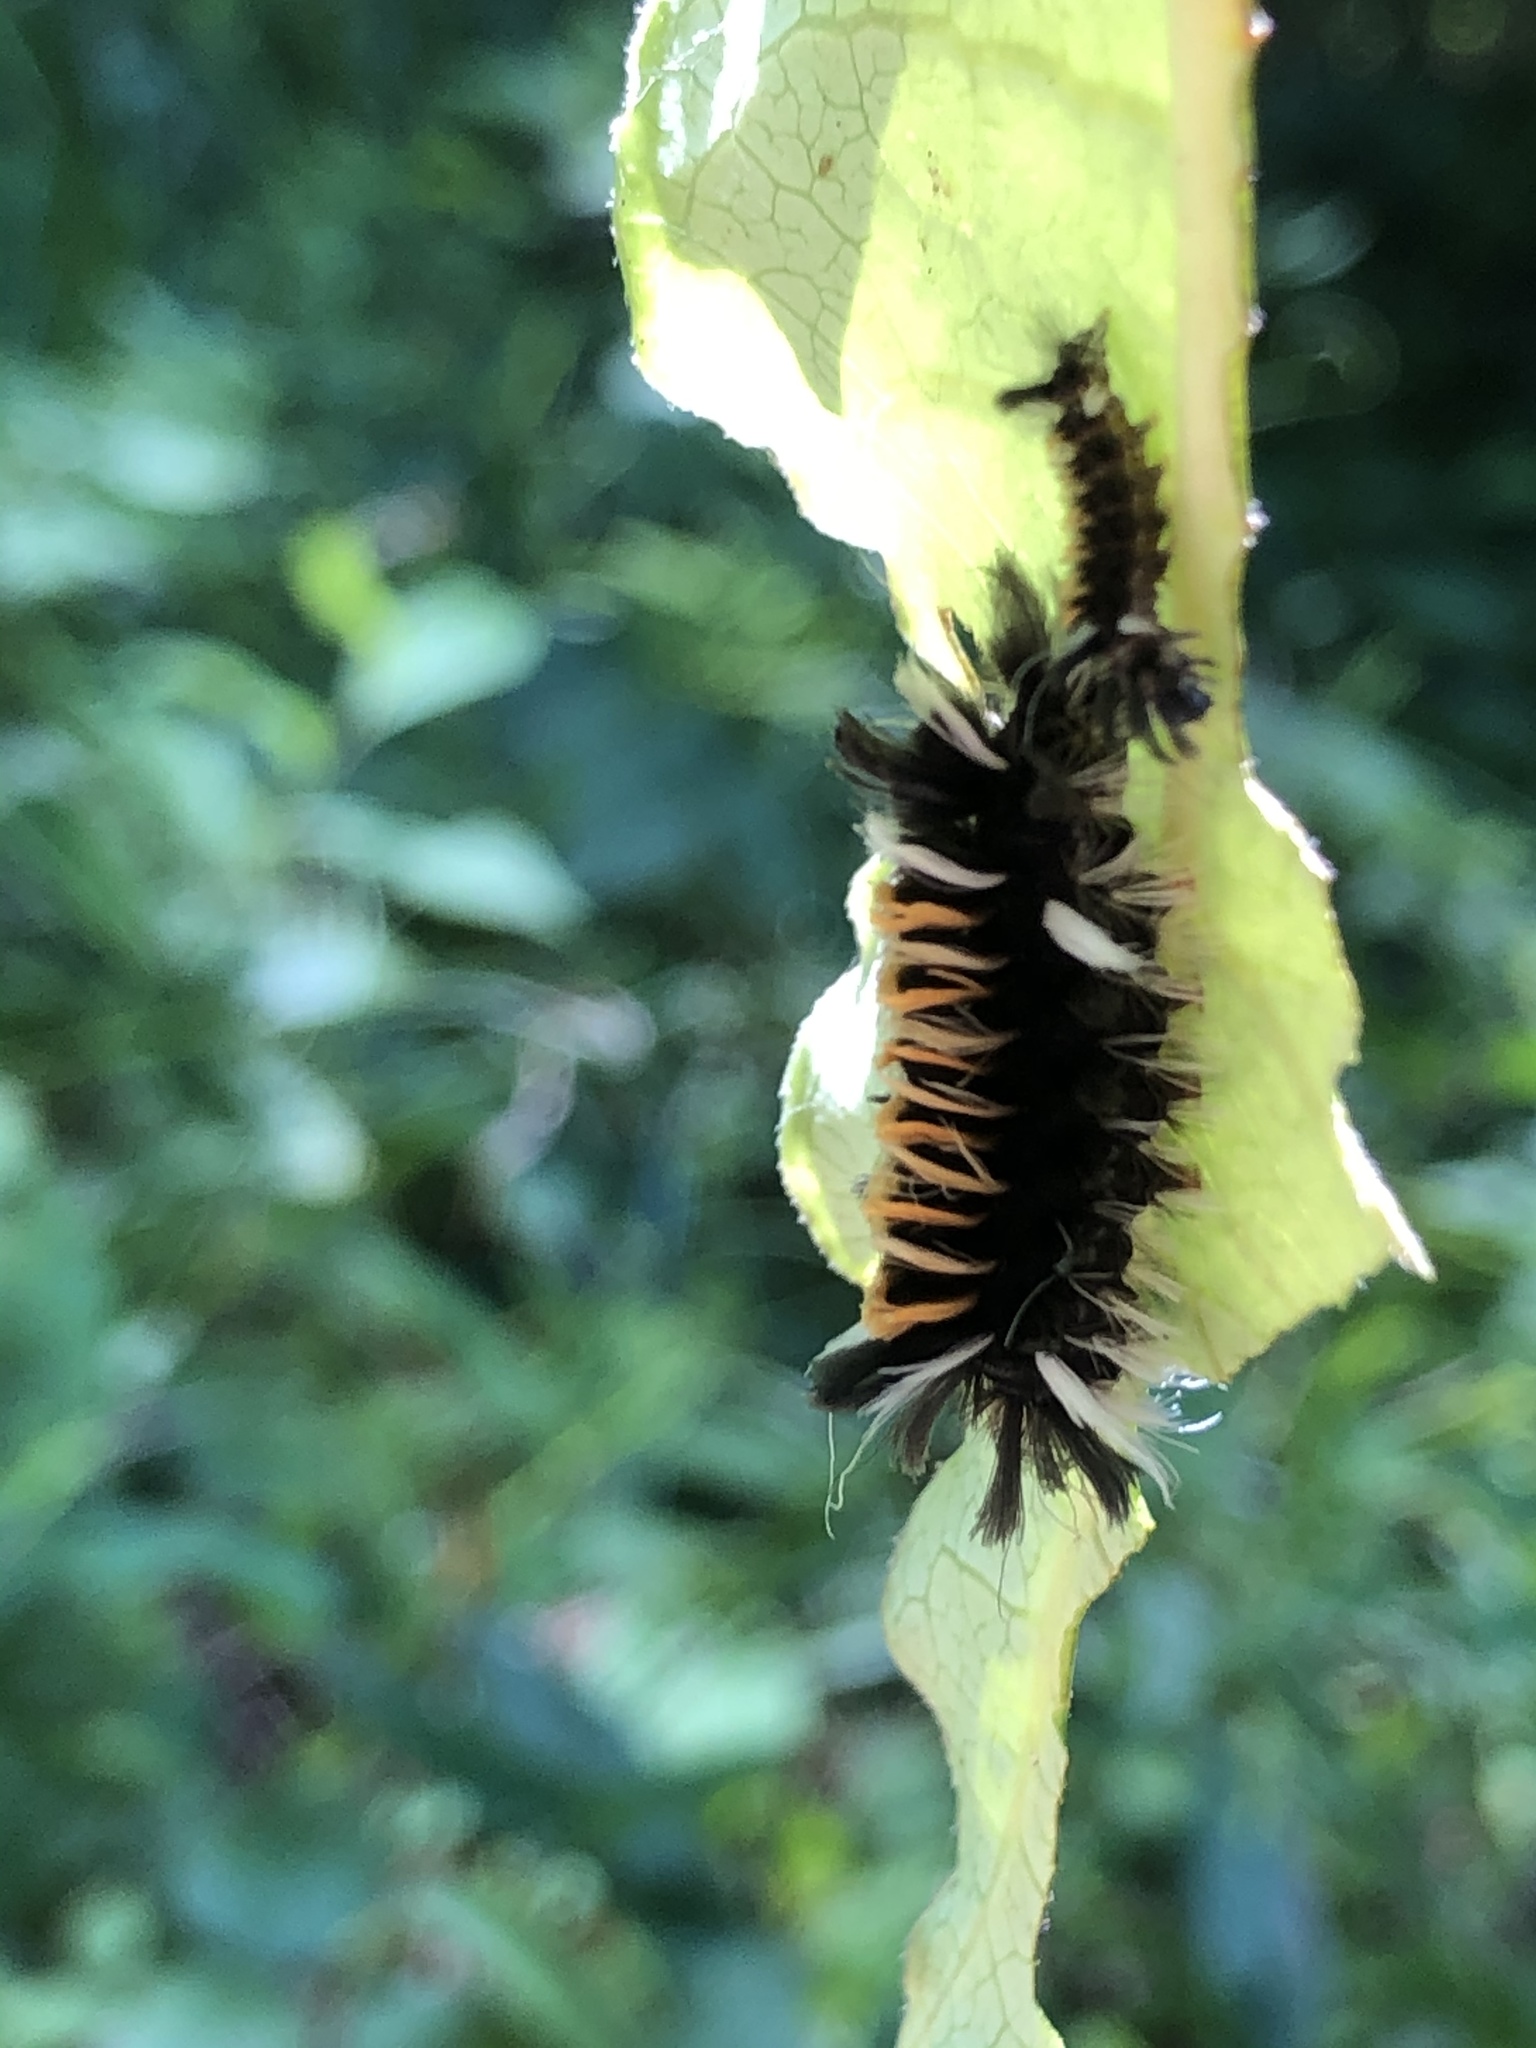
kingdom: Animalia
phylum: Arthropoda
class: Insecta
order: Lepidoptera
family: Erebidae
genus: Euchaetes
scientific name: Euchaetes egle
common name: Milkweed tussock moth
